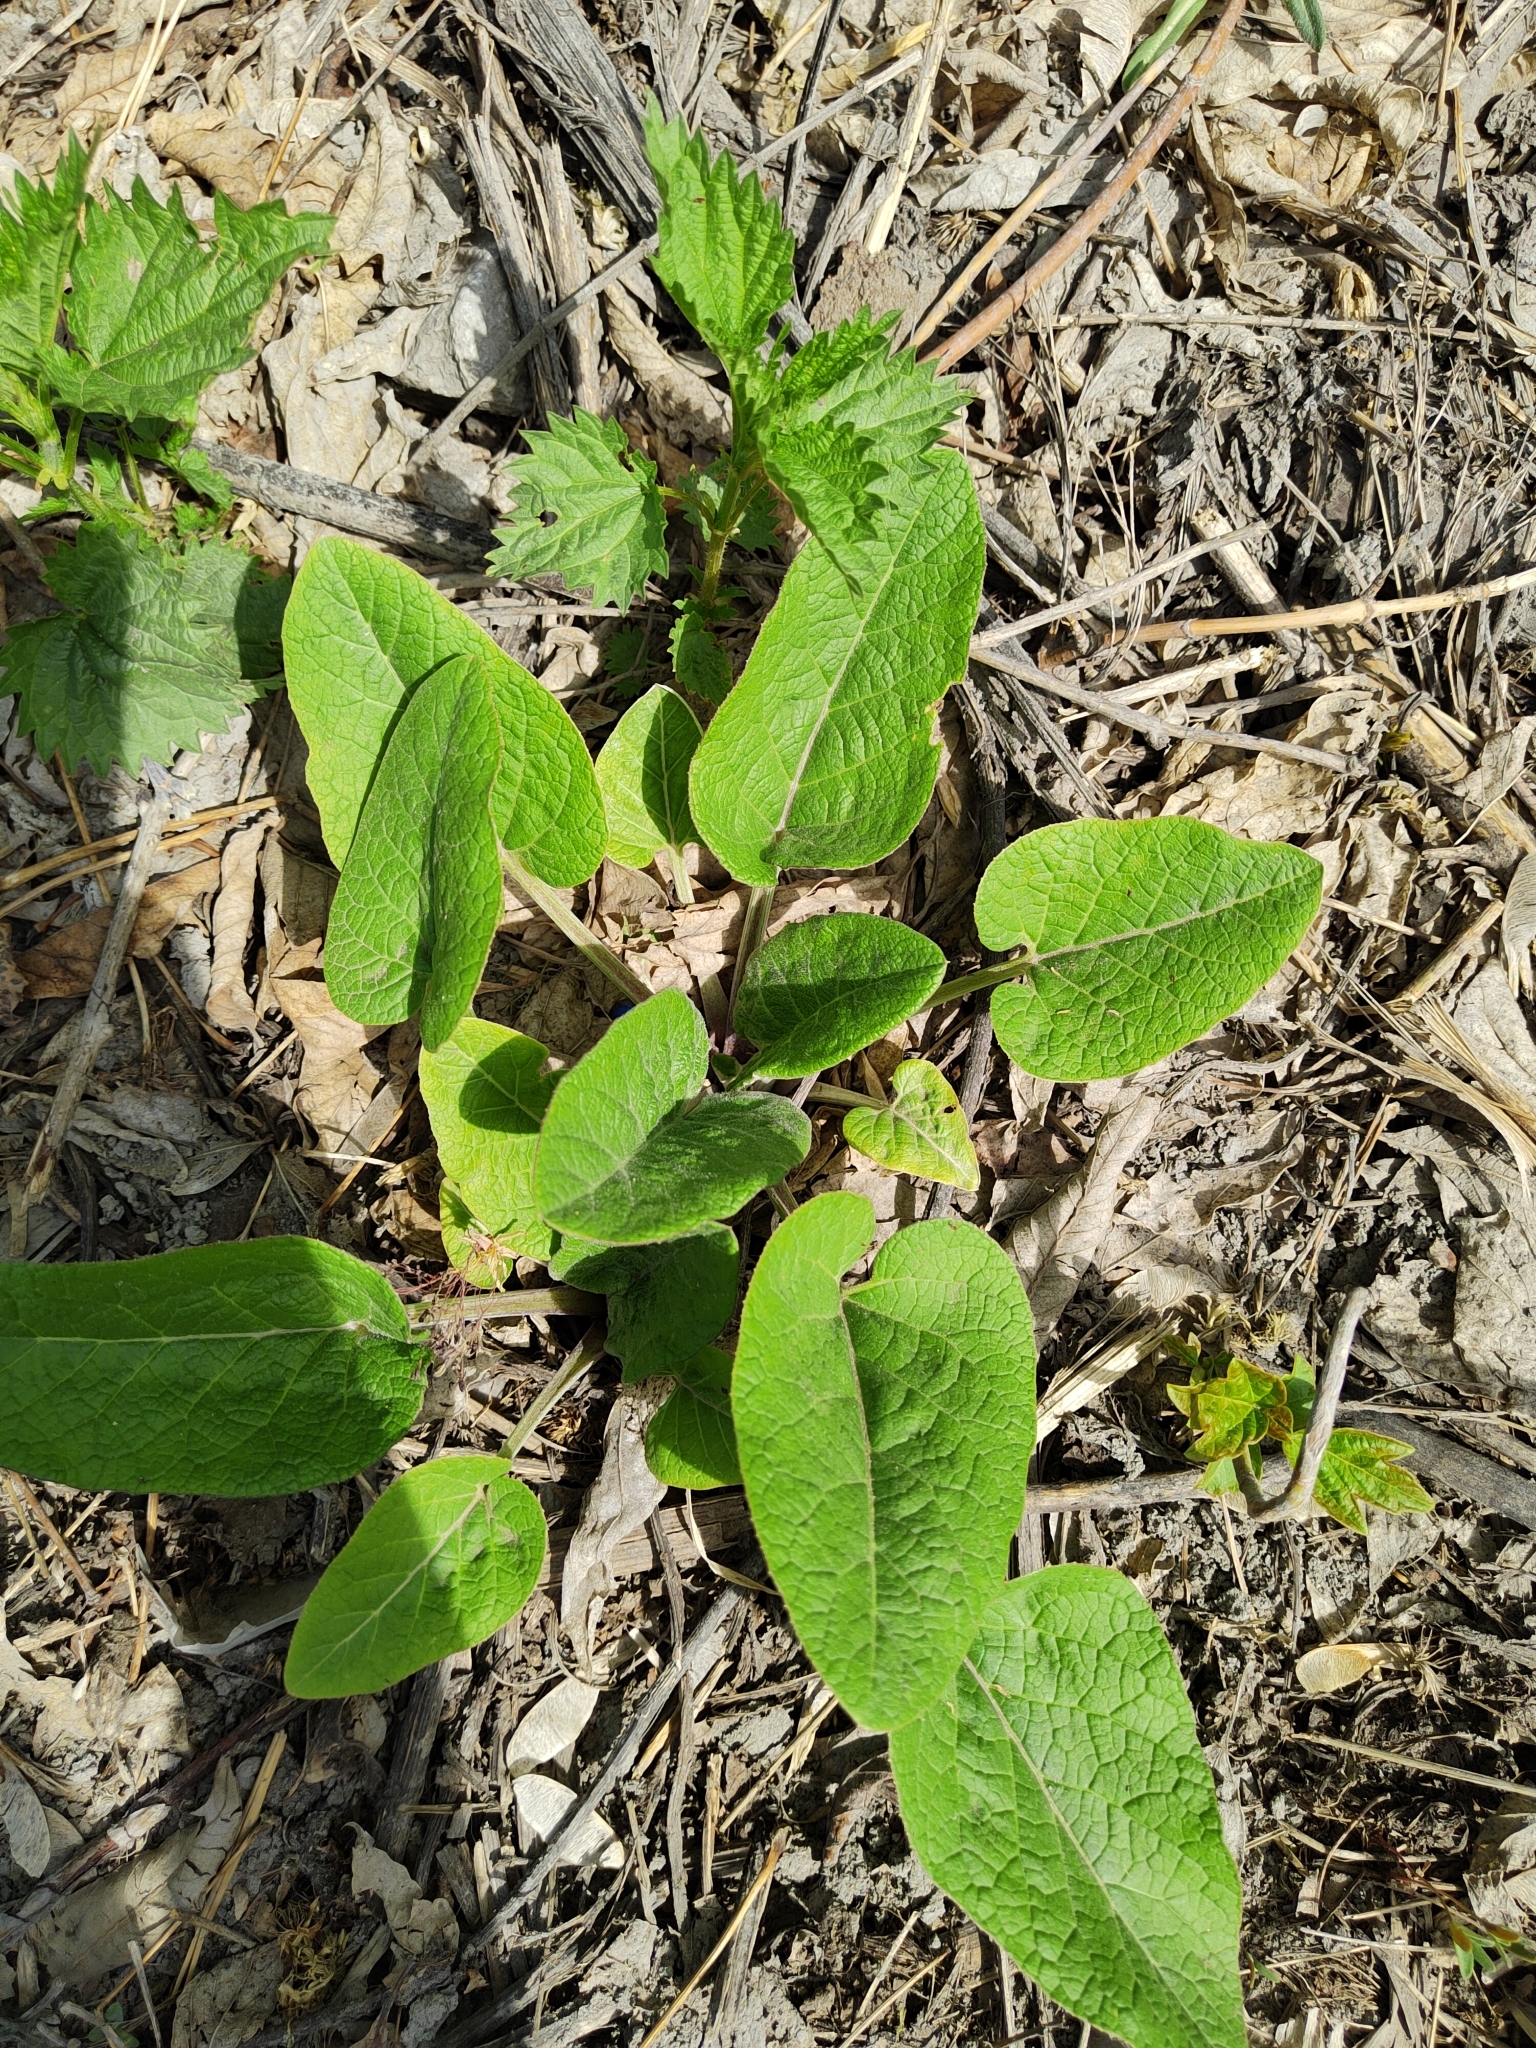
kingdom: Plantae
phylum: Tracheophyta
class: Magnoliopsida
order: Asterales
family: Asteraceae
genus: Arctium
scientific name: Arctium tomentosum
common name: Woolly burdock
